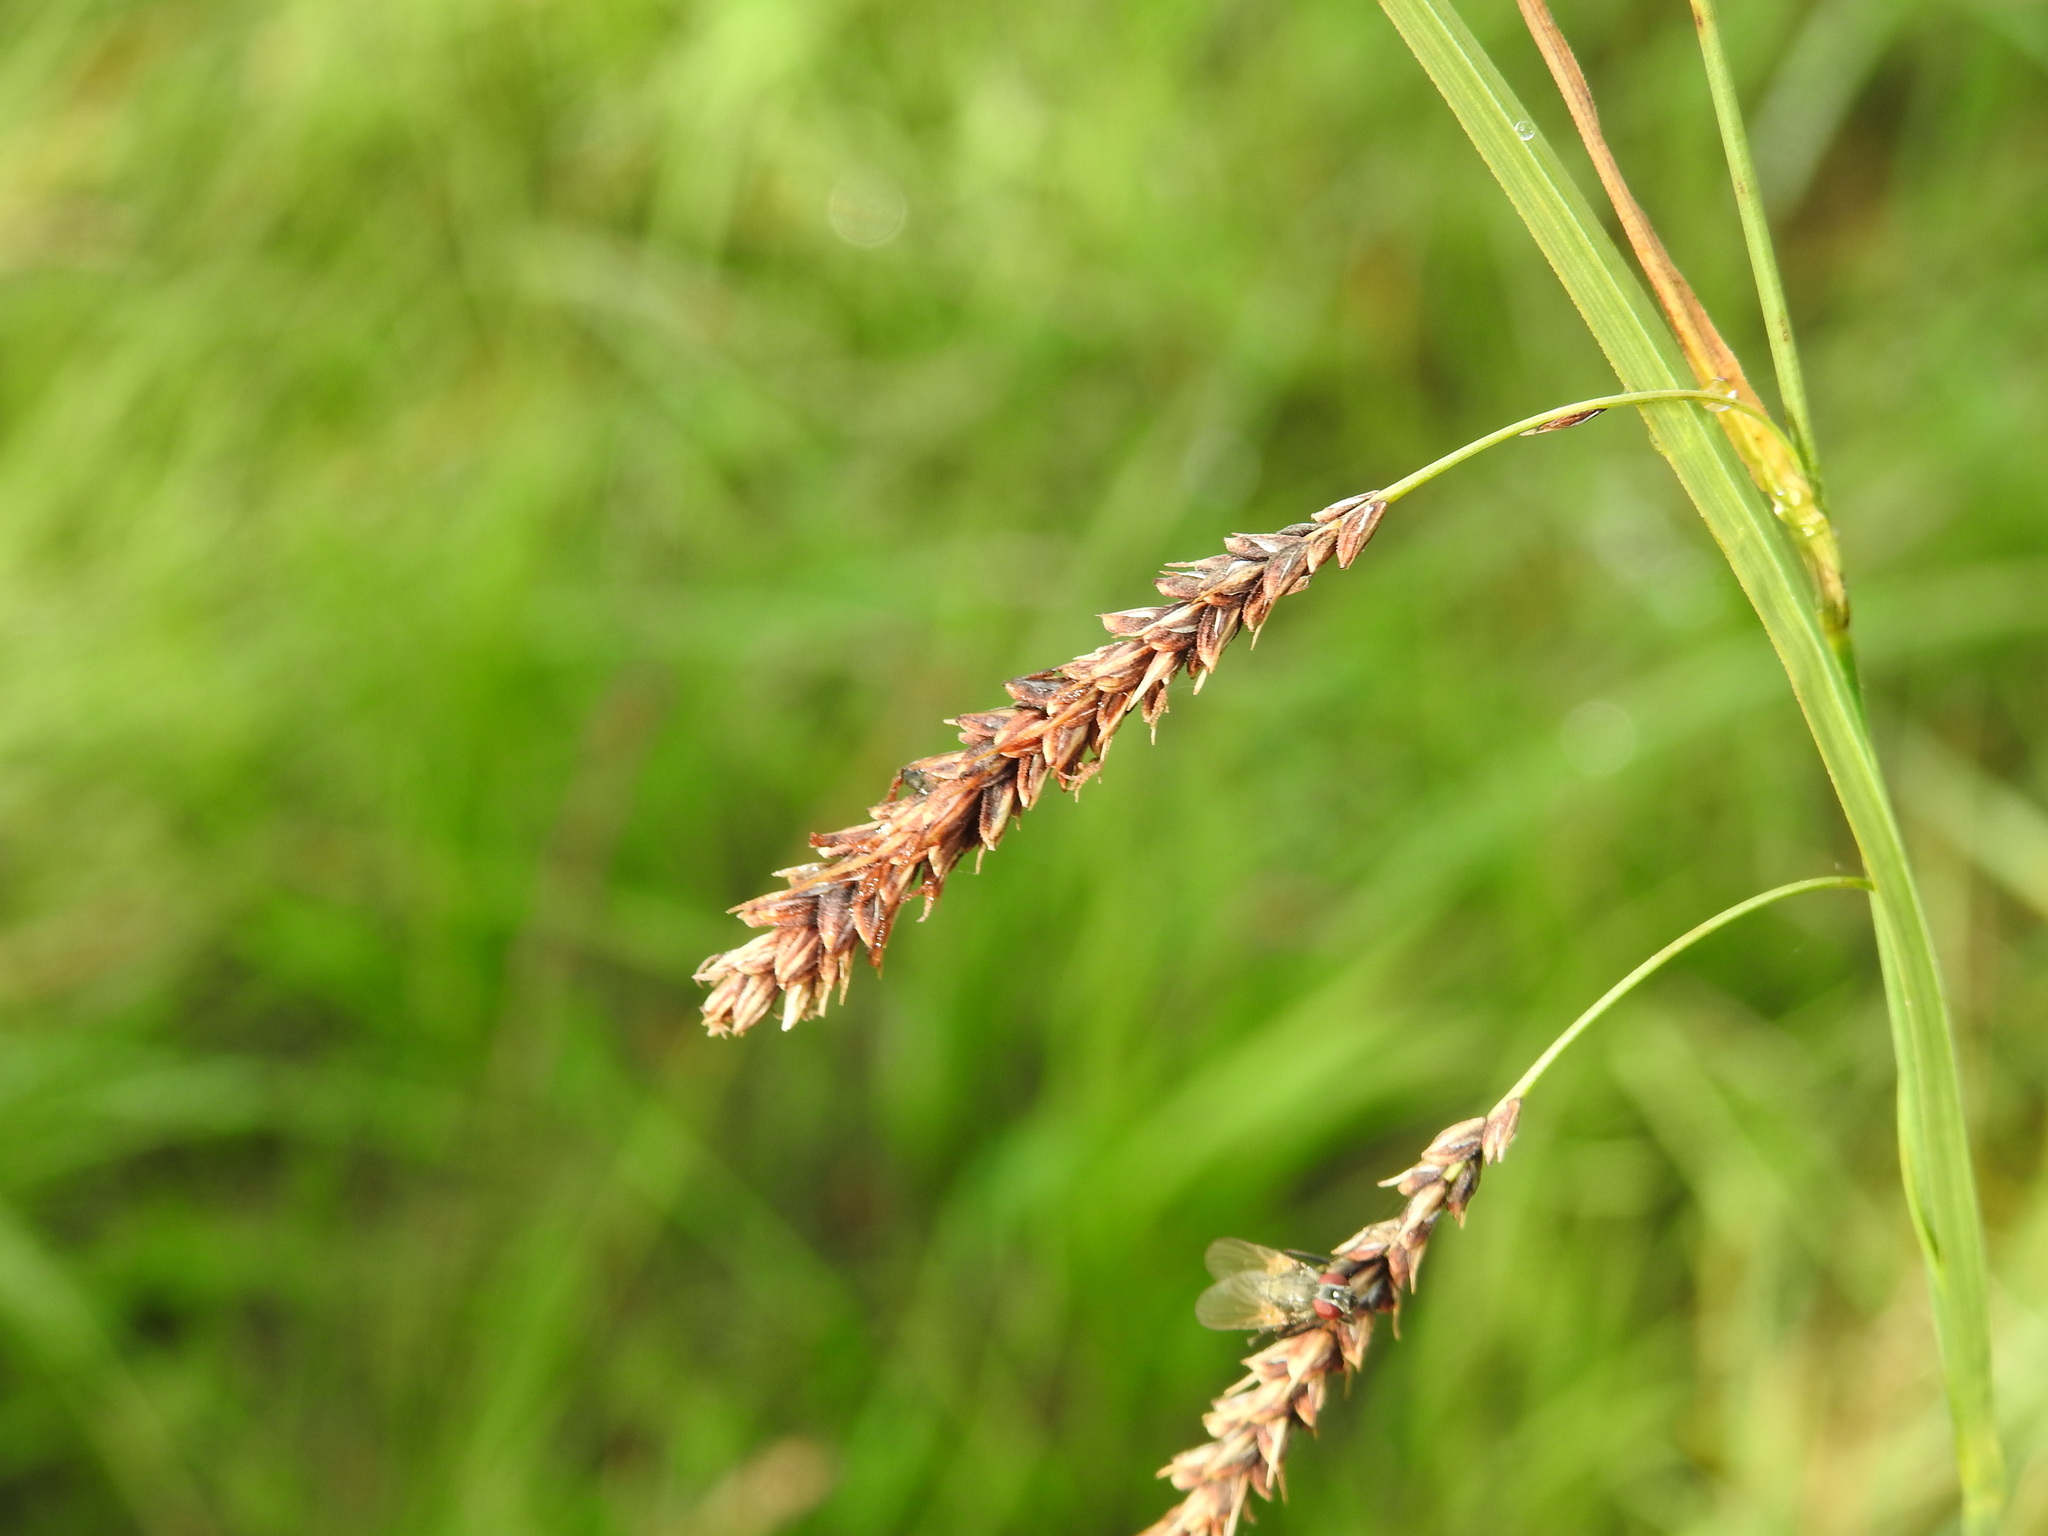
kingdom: Plantae
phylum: Tracheophyta
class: Liliopsida
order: Poales
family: Cyperaceae
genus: Carex
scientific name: Carex flacca
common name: Glaucous sedge
